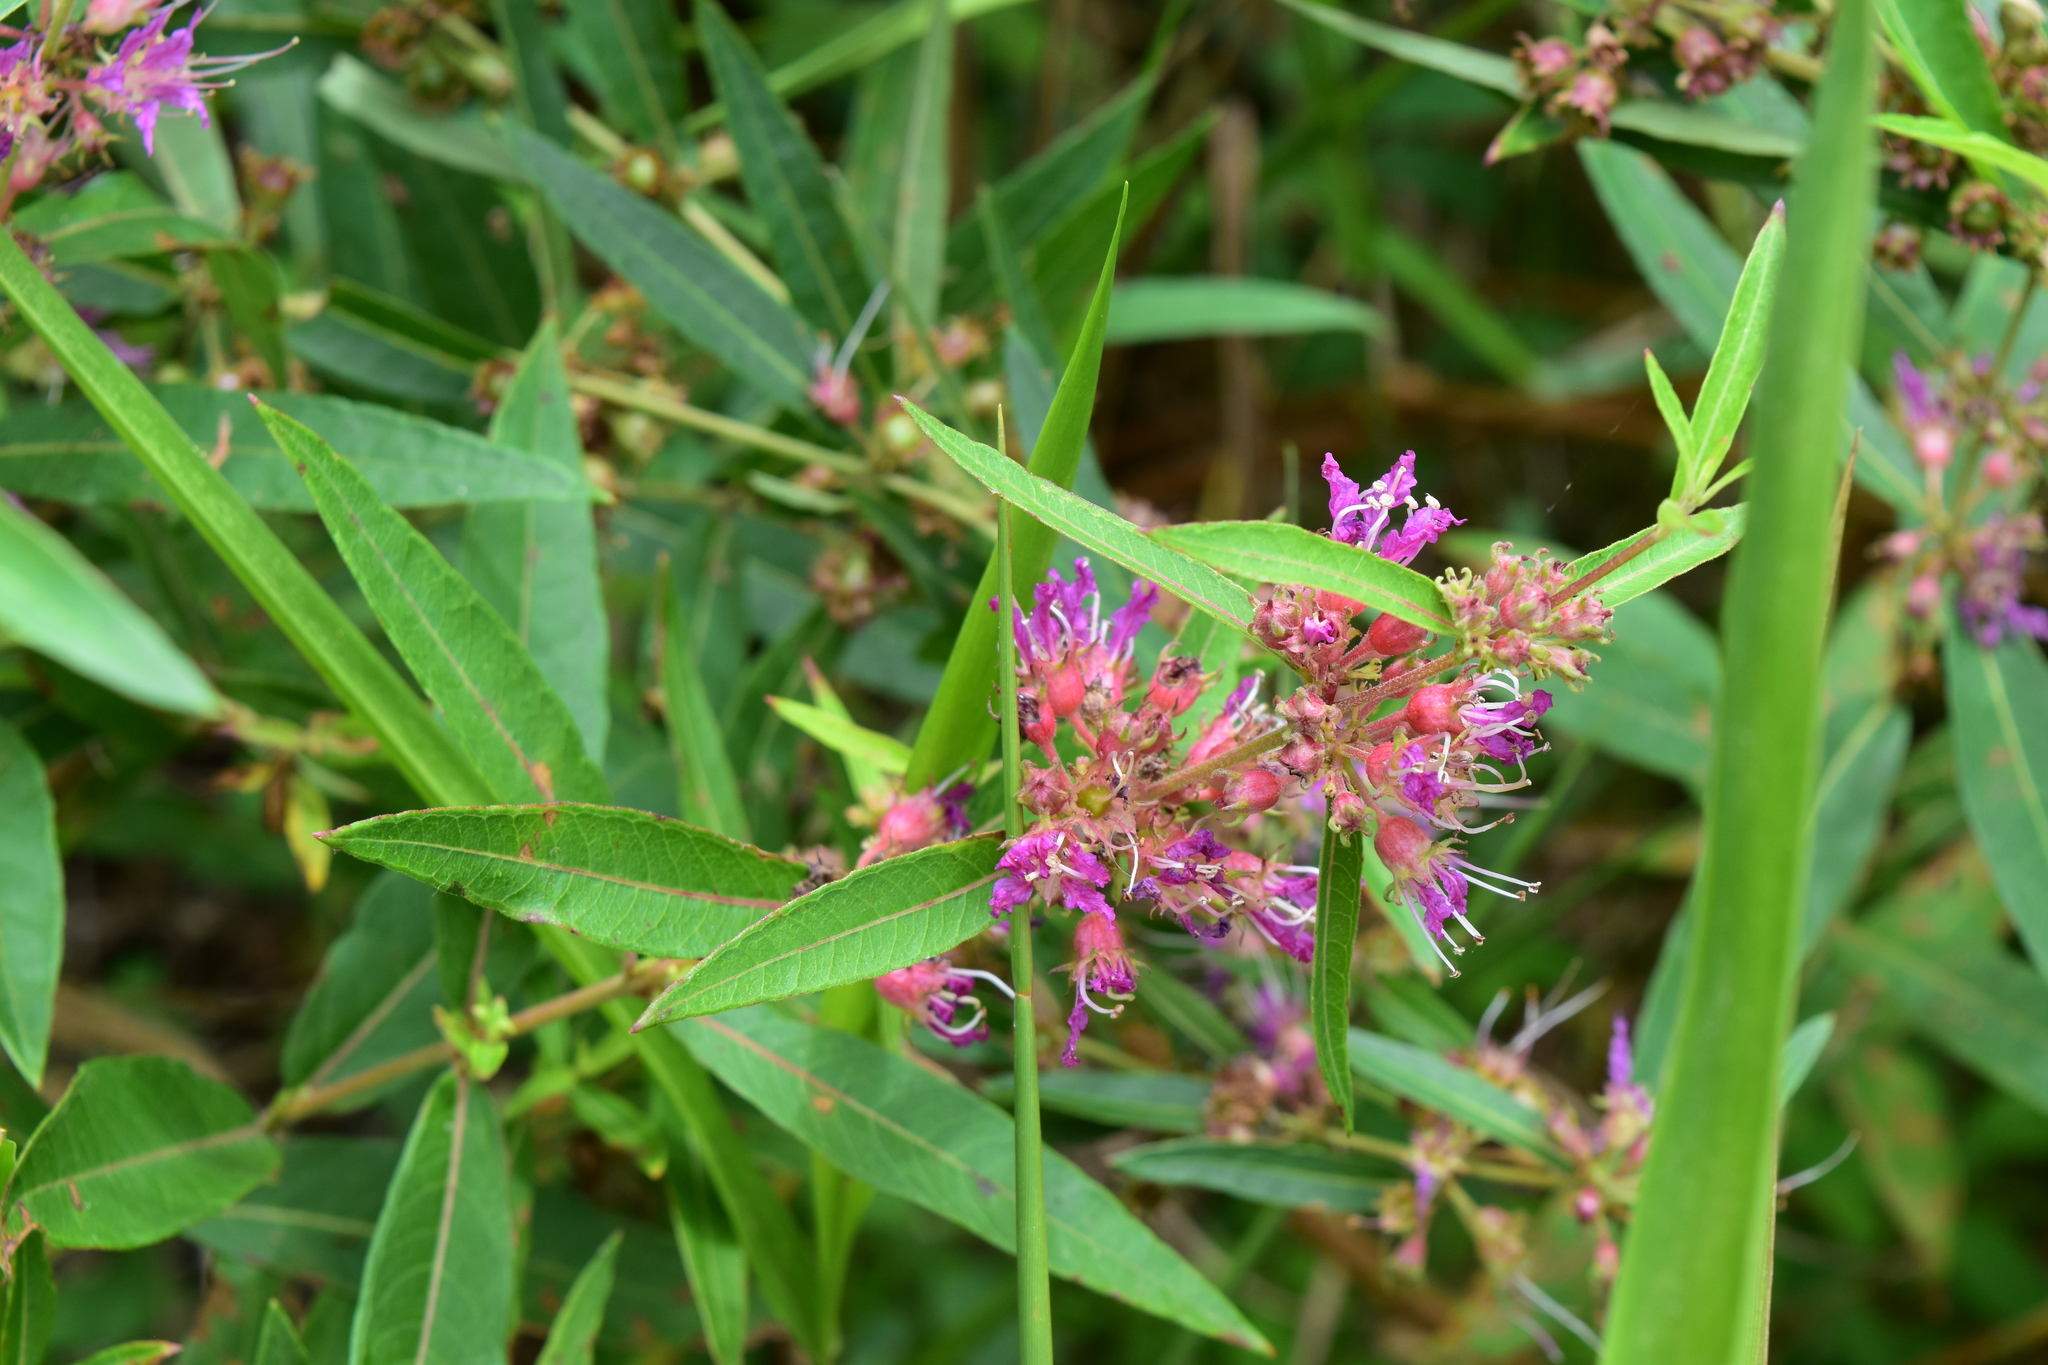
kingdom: Plantae
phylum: Tracheophyta
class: Magnoliopsida
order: Myrtales
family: Lythraceae
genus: Decodon
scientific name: Decodon verticillatus
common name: Hairy swamp loosestrife
